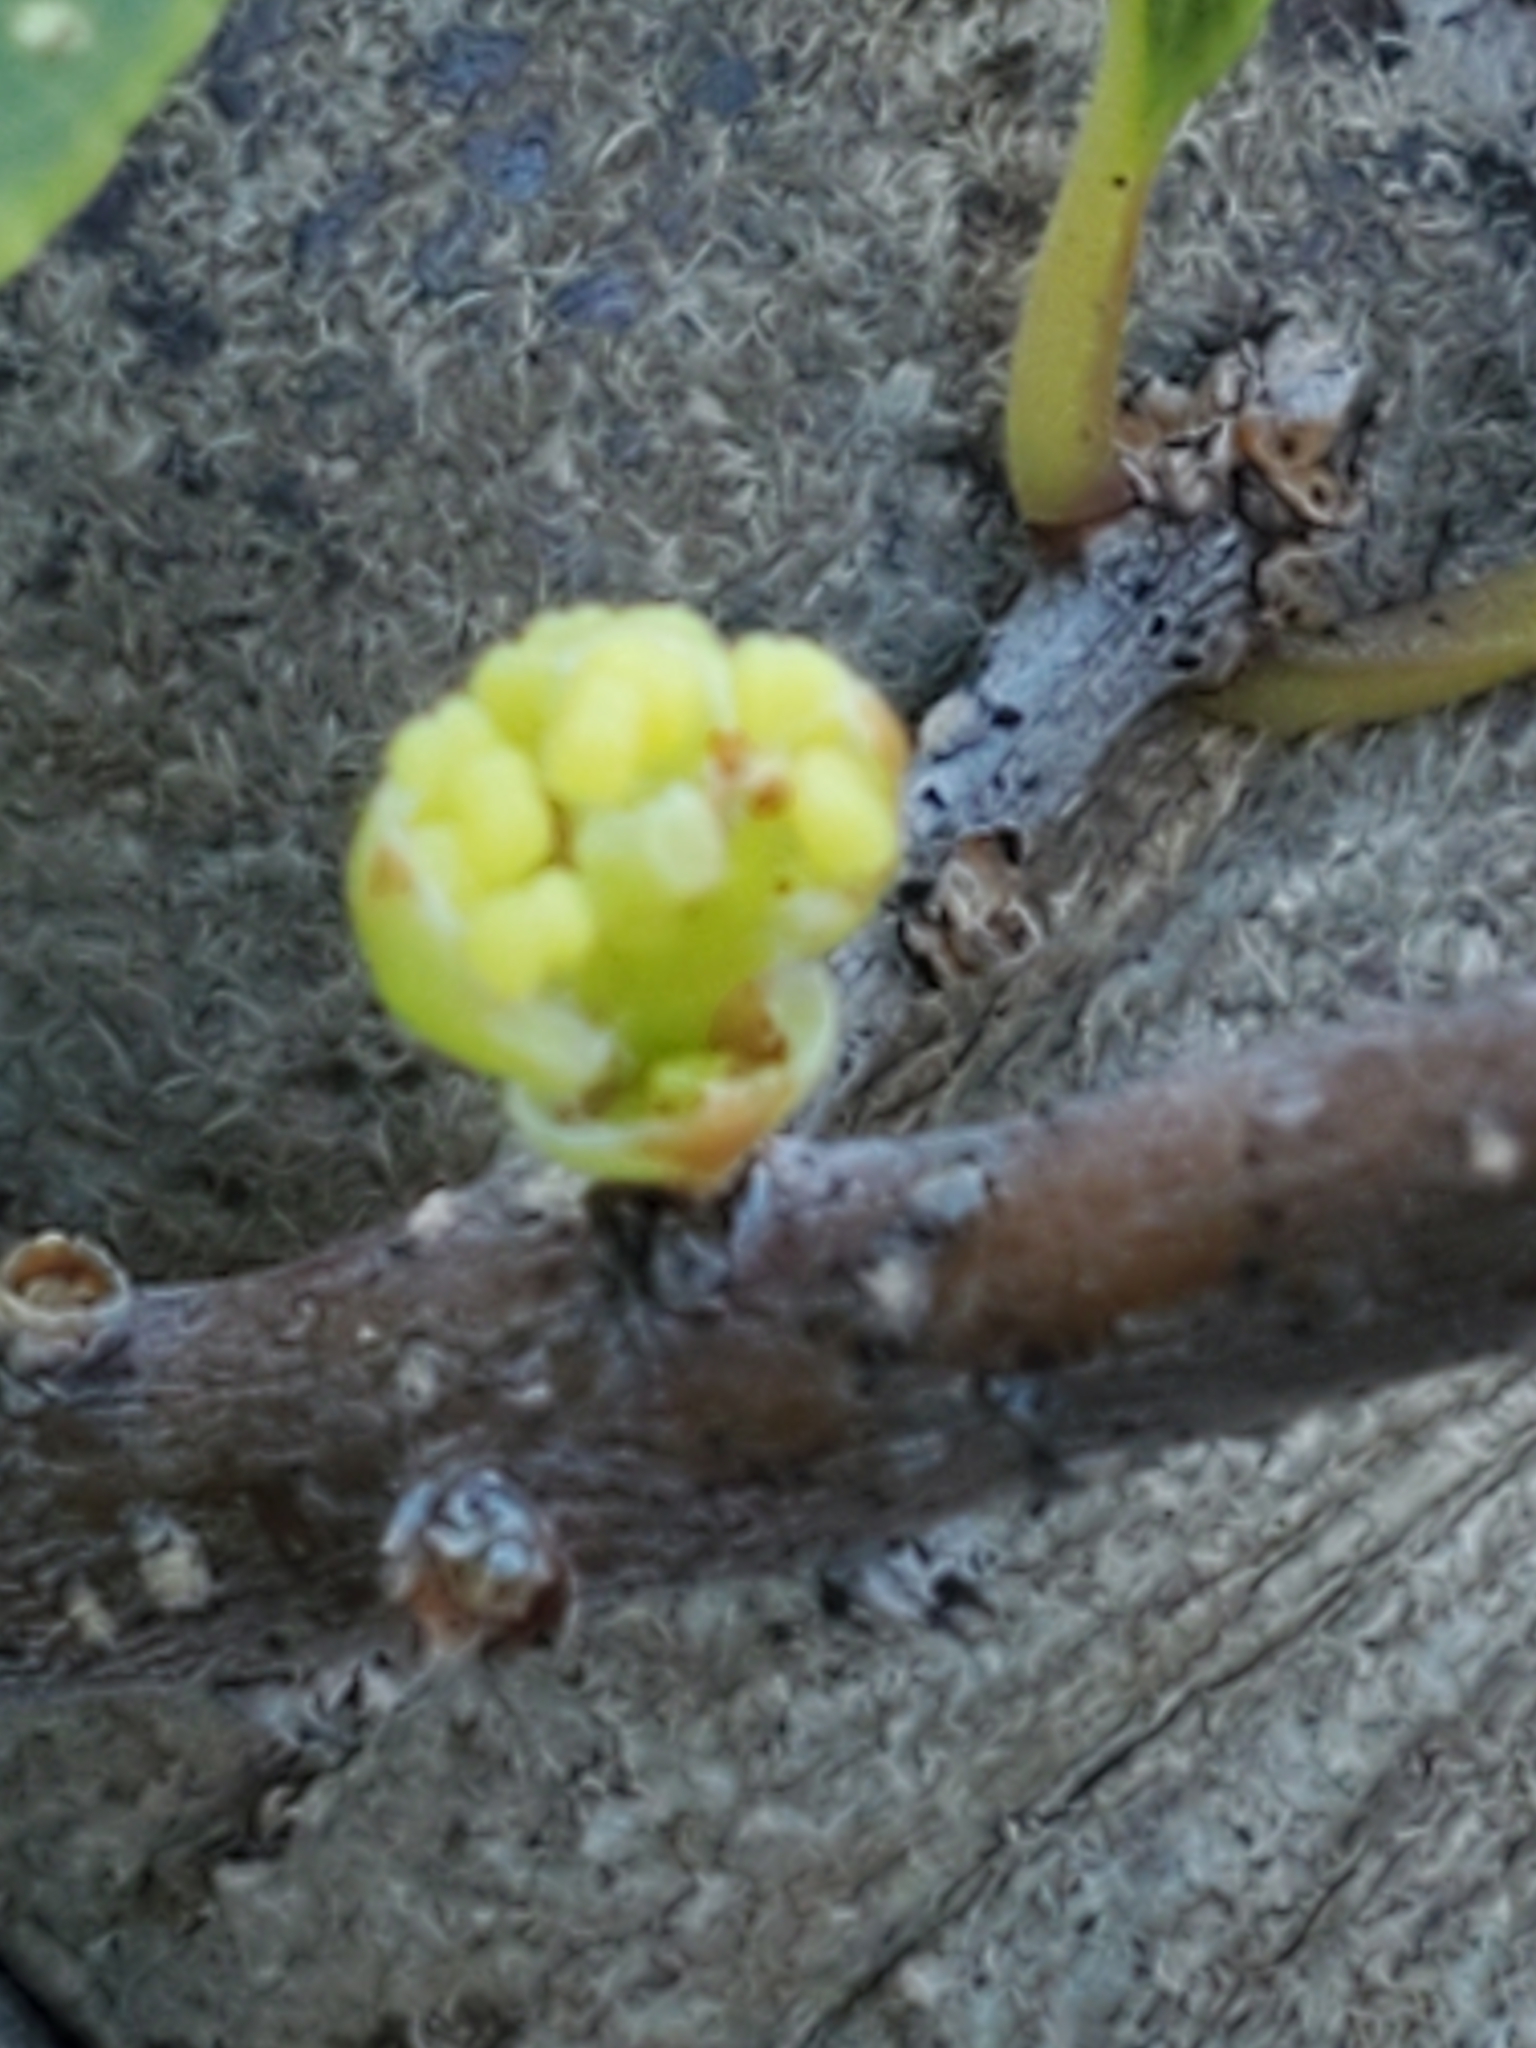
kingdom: Plantae
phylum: Tracheophyta
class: Magnoliopsida
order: Lamiales
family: Oleaceae
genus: Forestiera
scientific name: Forestiera reticulata
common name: Netleaf swamp-privet
